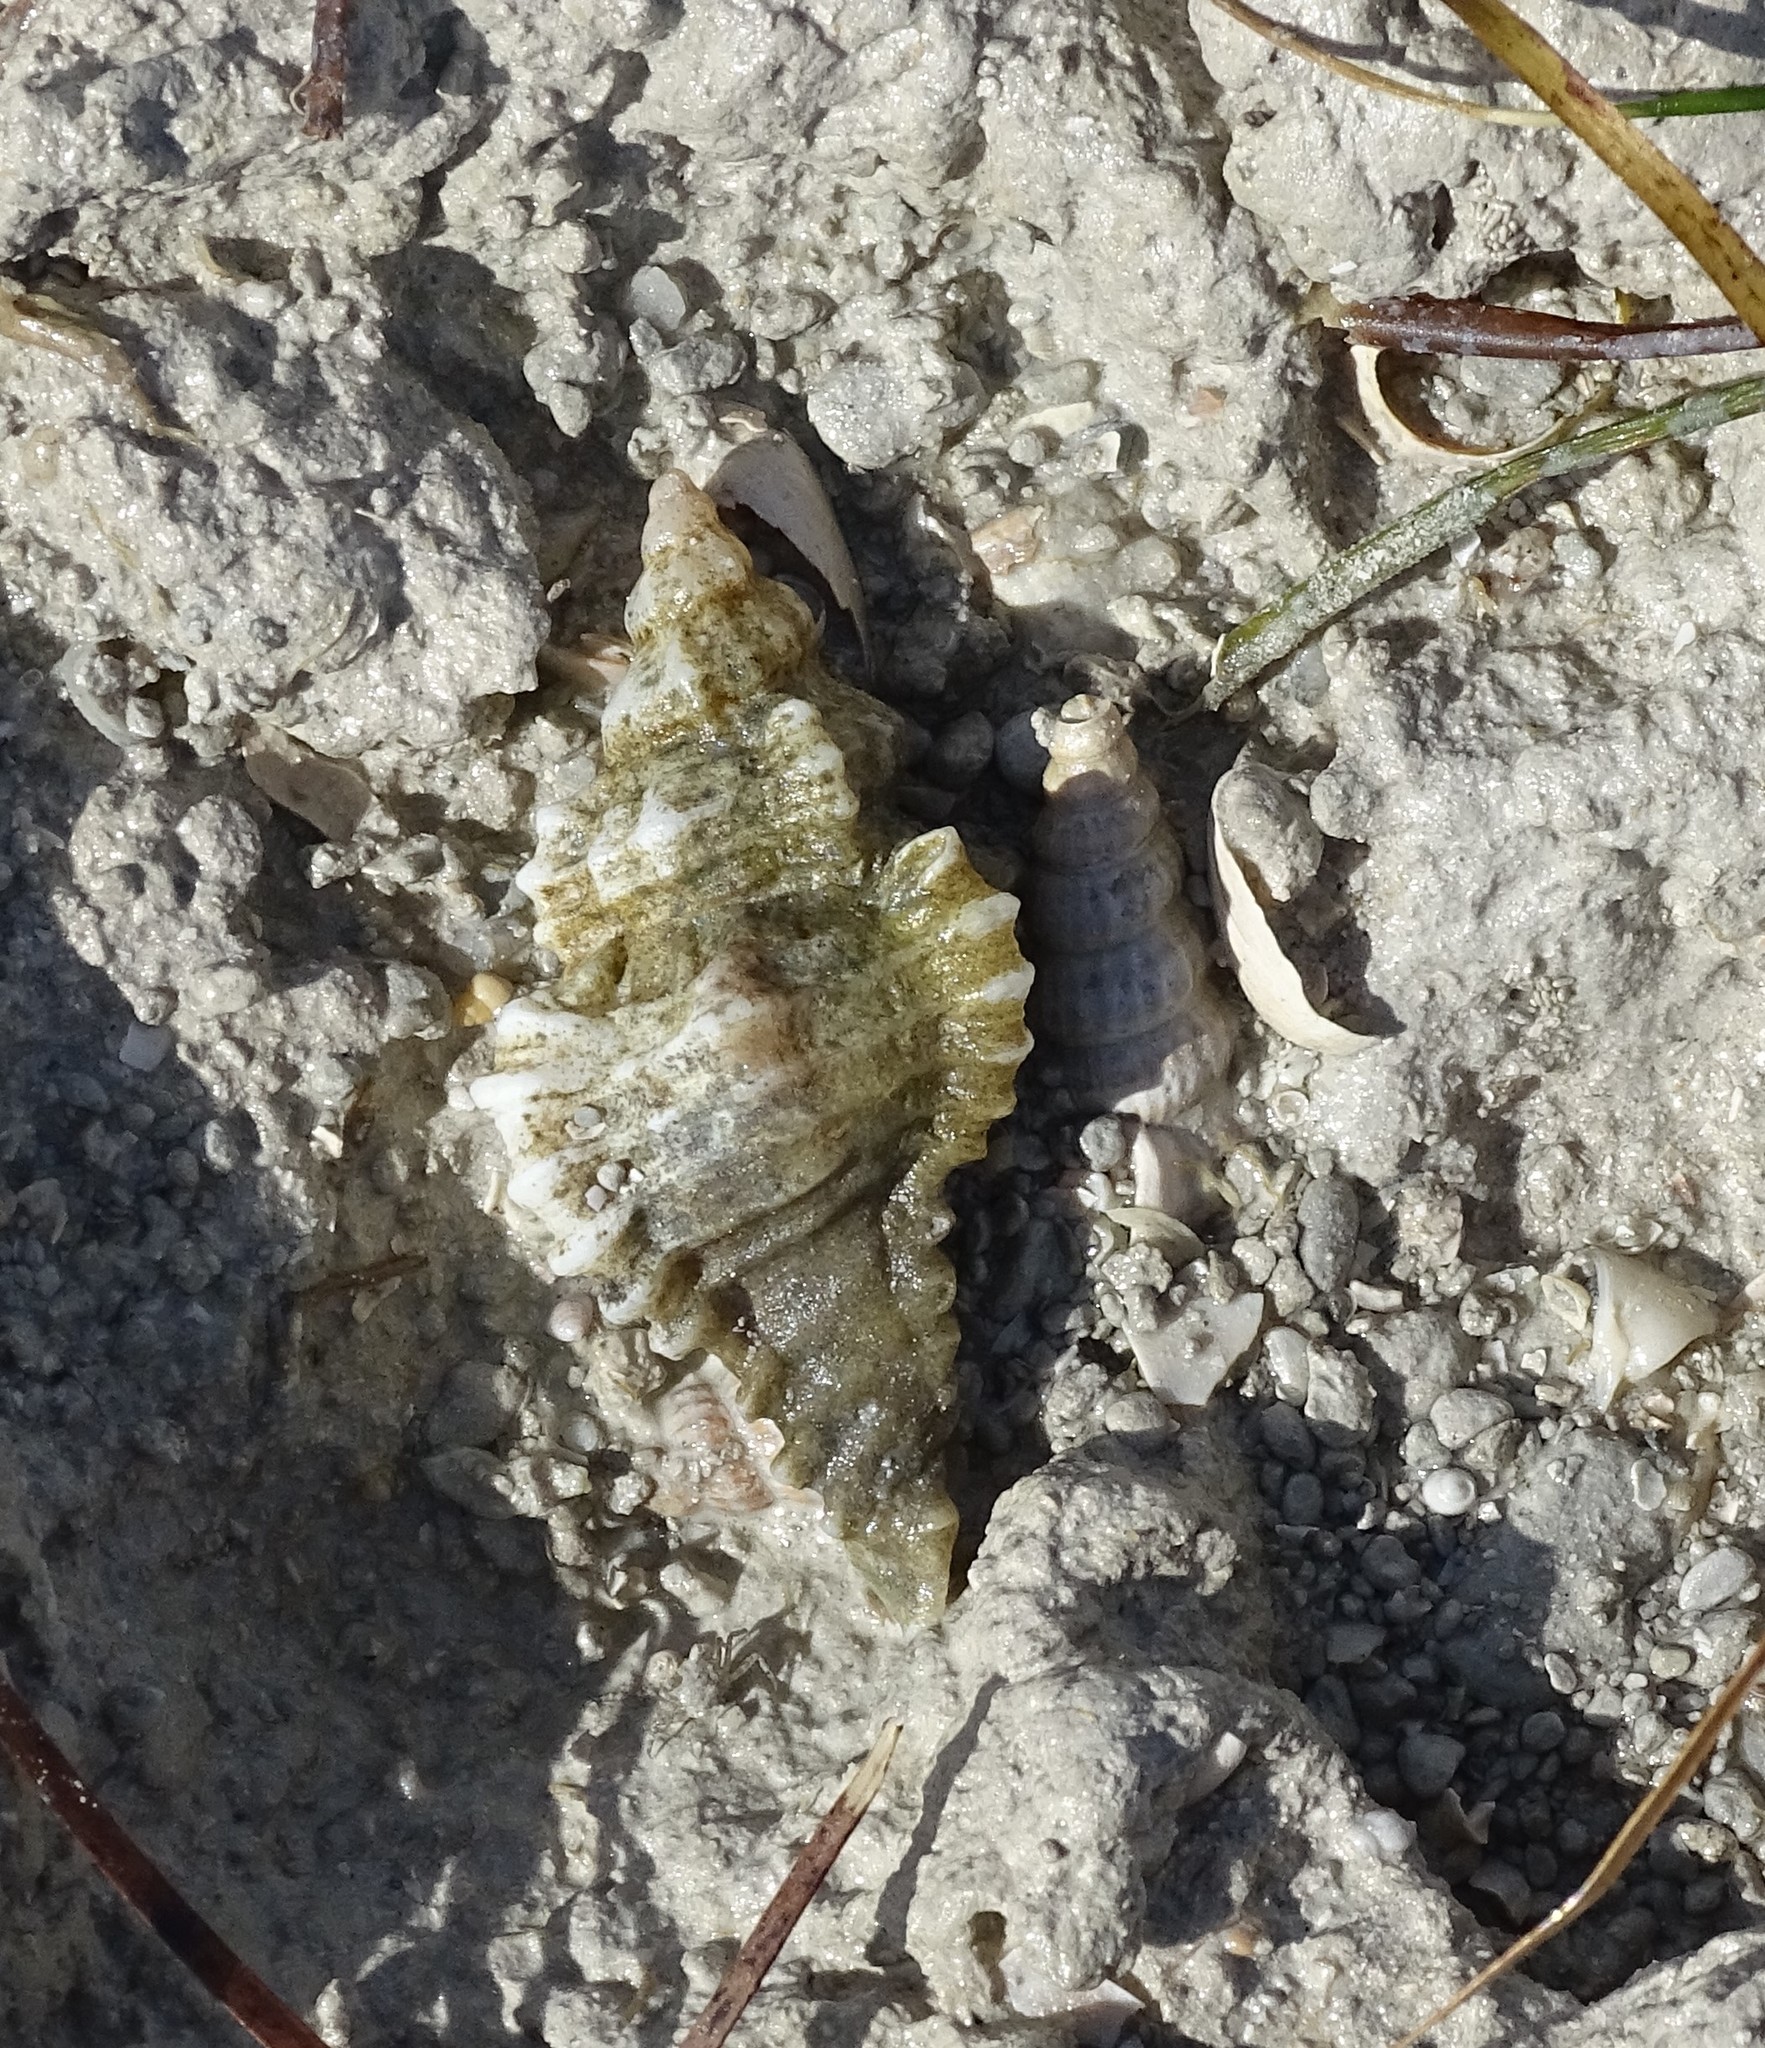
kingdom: Animalia
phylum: Mollusca
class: Gastropoda
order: Neogastropoda
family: Muricidae
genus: Chicoreus
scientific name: Chicoreus florifer
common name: Flowery lace murex
